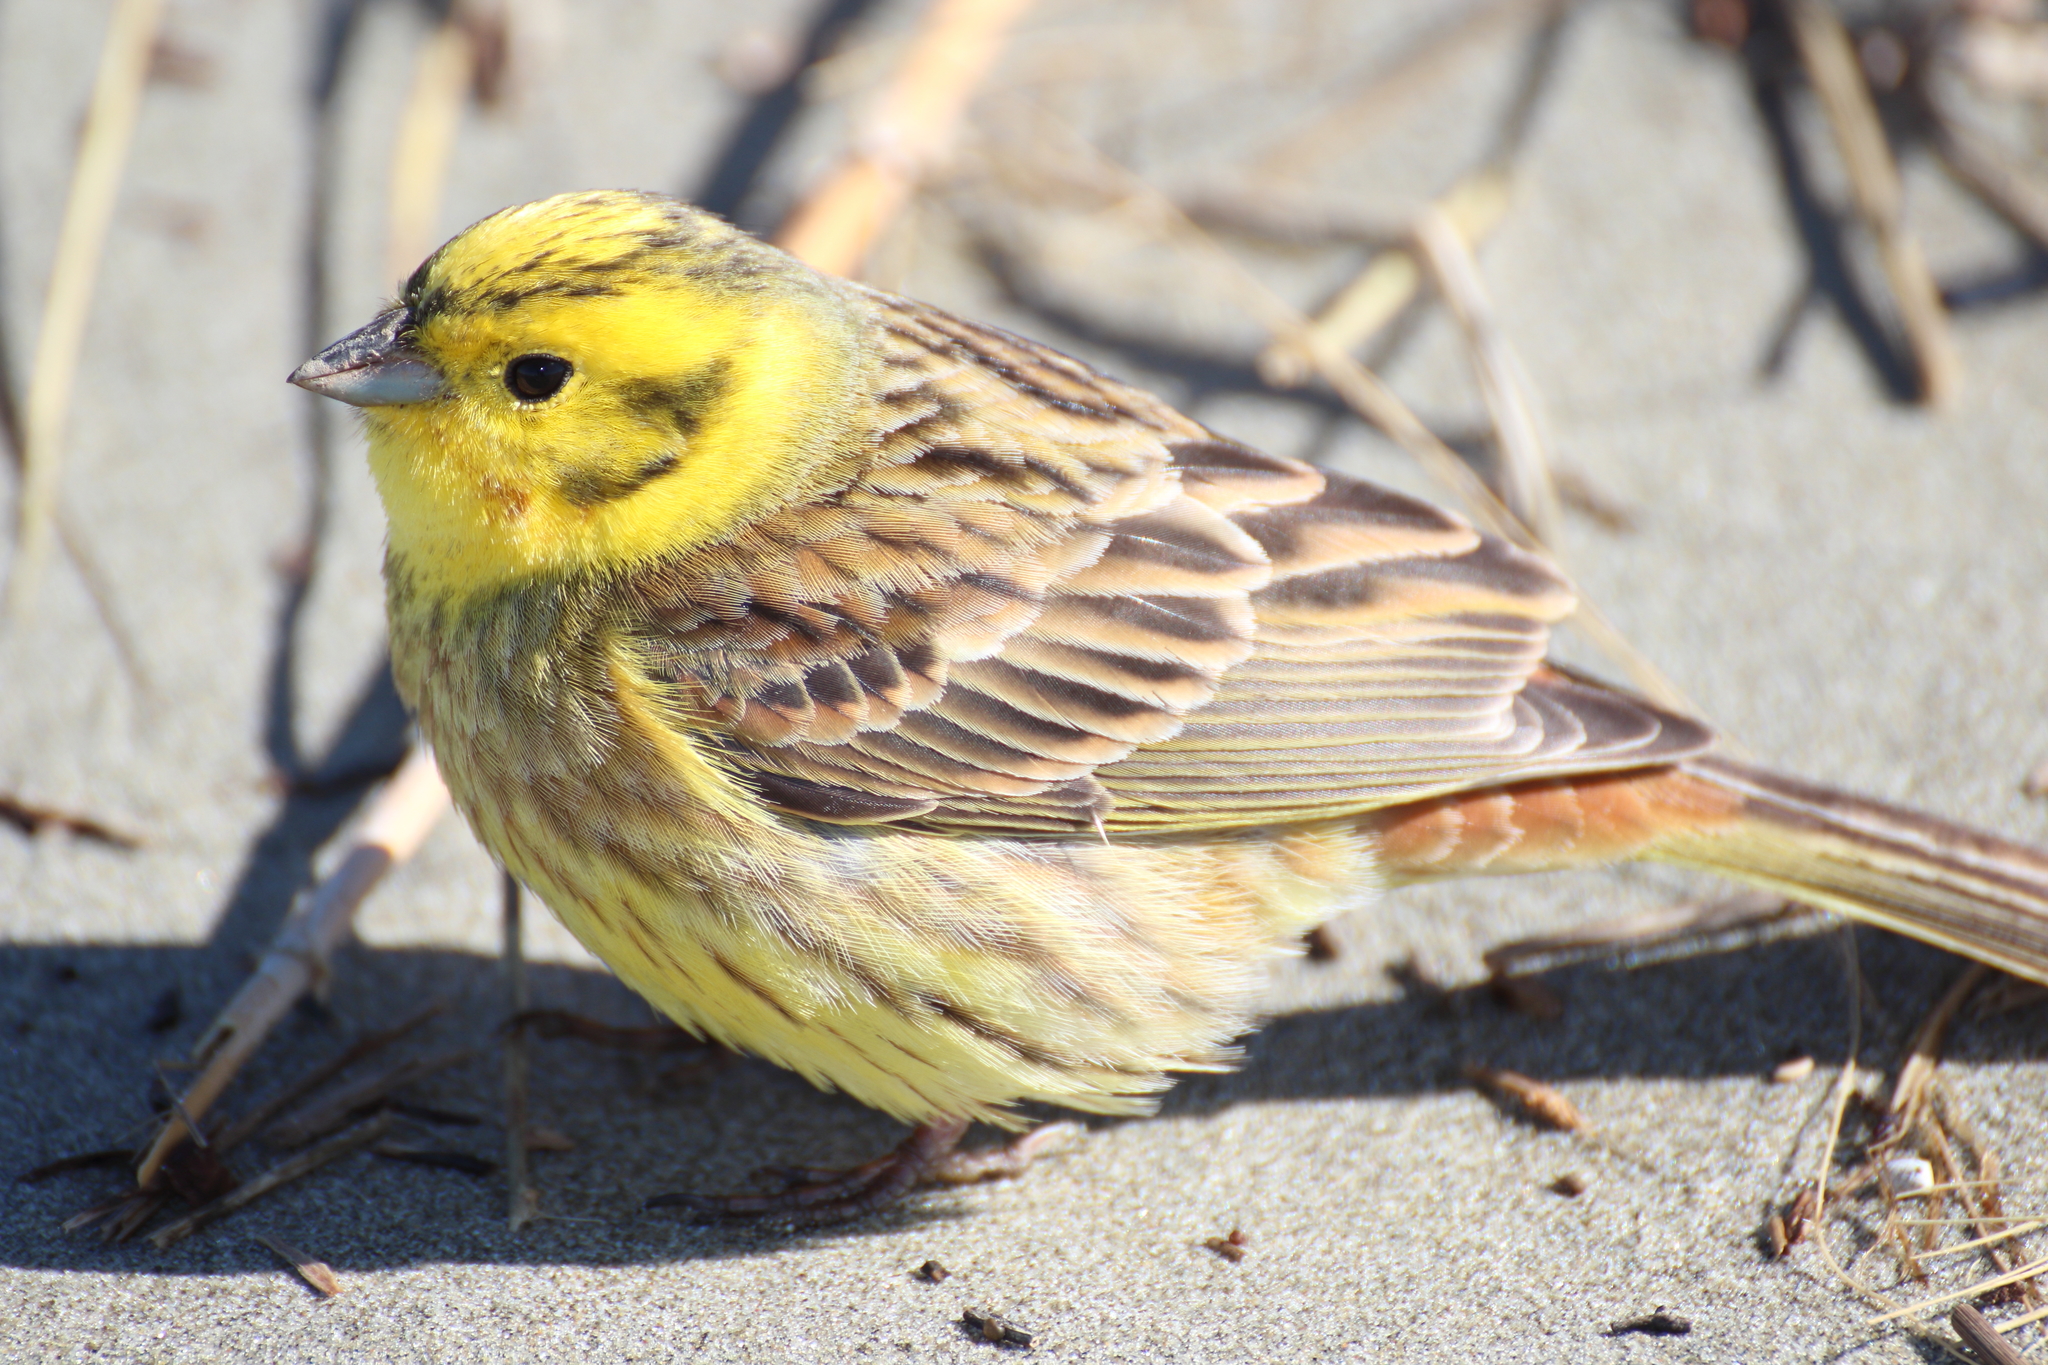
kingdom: Animalia
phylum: Chordata
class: Aves
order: Passeriformes
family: Emberizidae
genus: Emberiza
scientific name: Emberiza citrinella
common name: Yellowhammer
